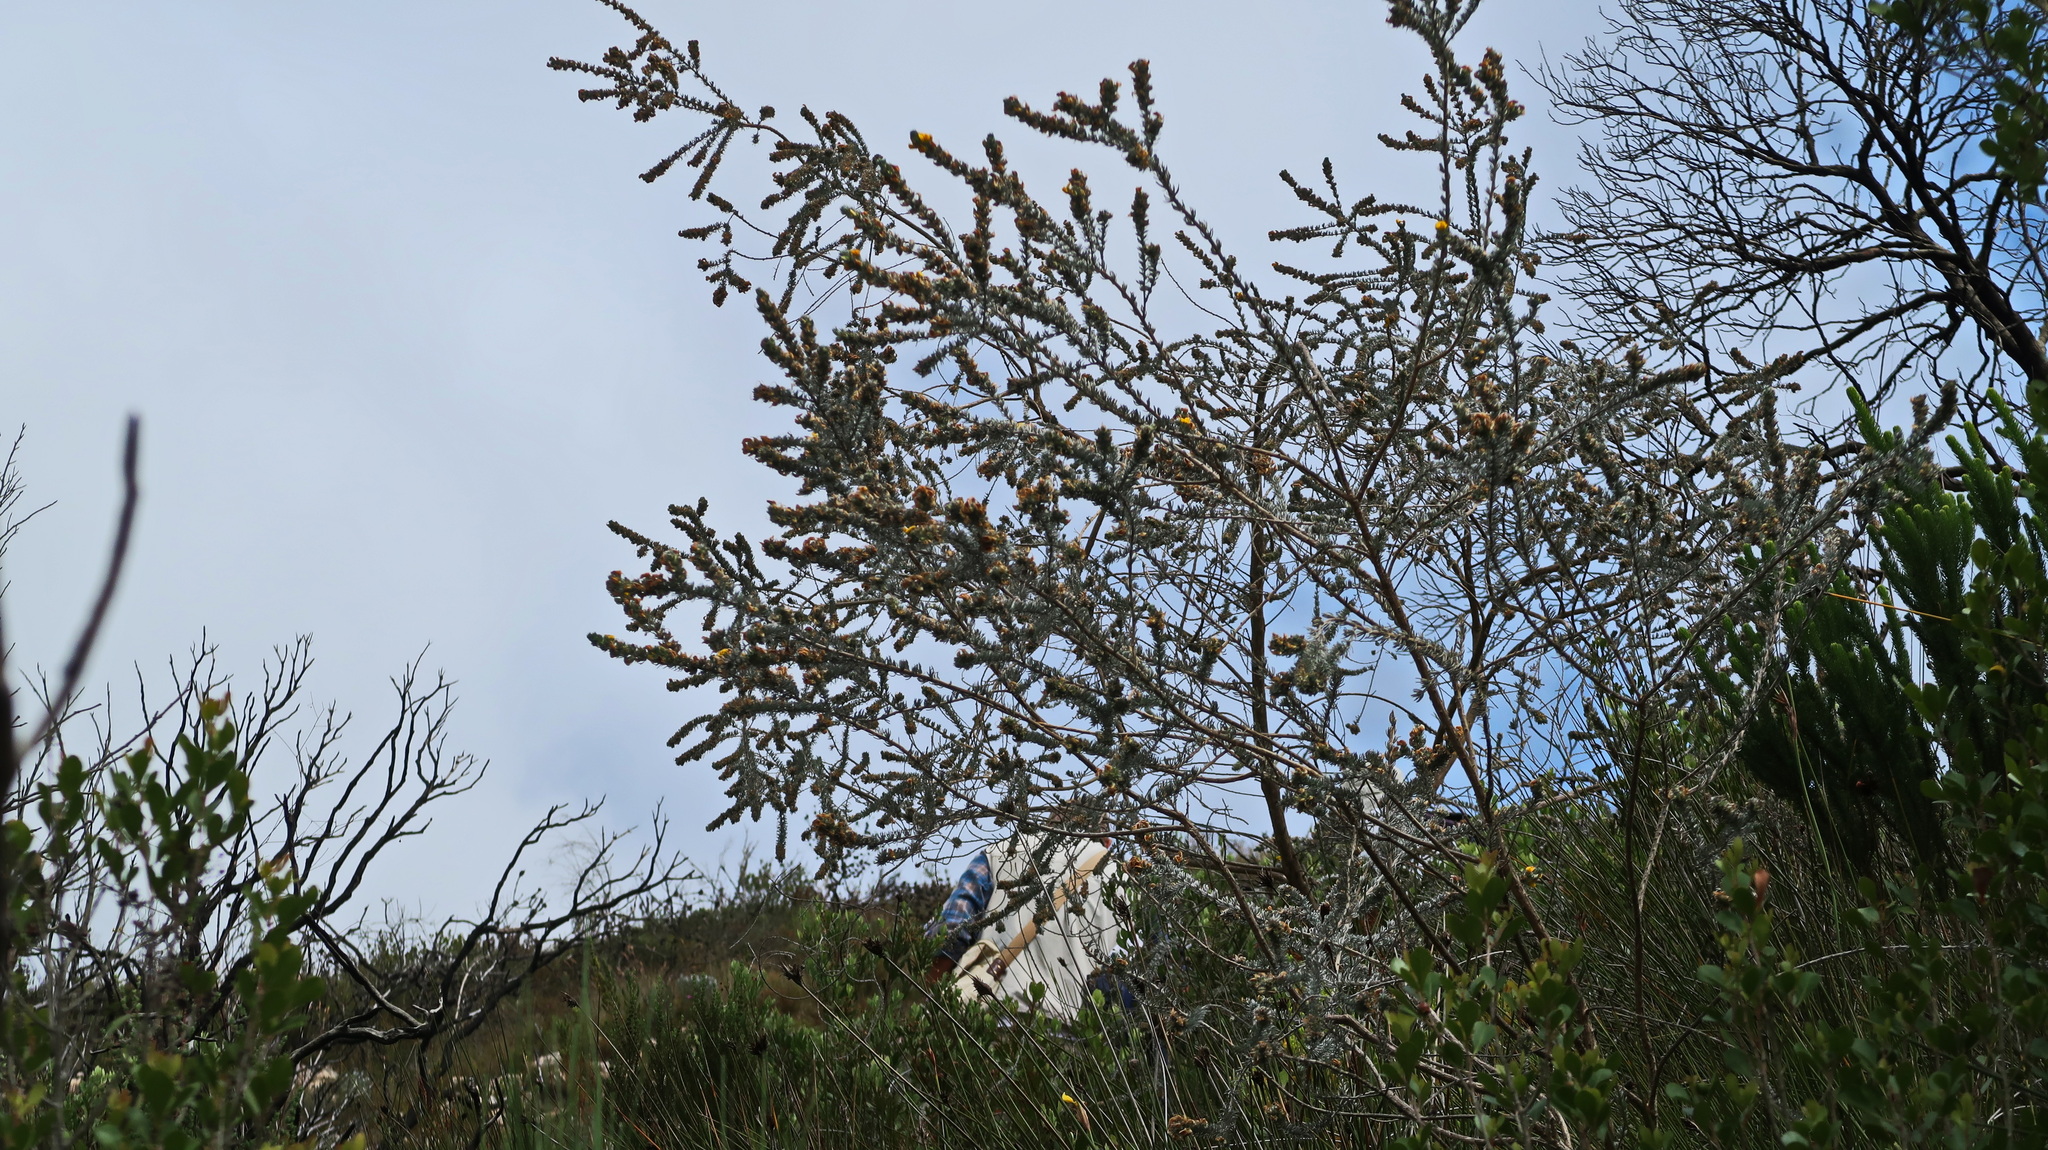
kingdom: Plantae
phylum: Tracheophyta
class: Magnoliopsida
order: Fabales
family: Fabaceae
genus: Aspalathus
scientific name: Aspalathus nickhelmei
